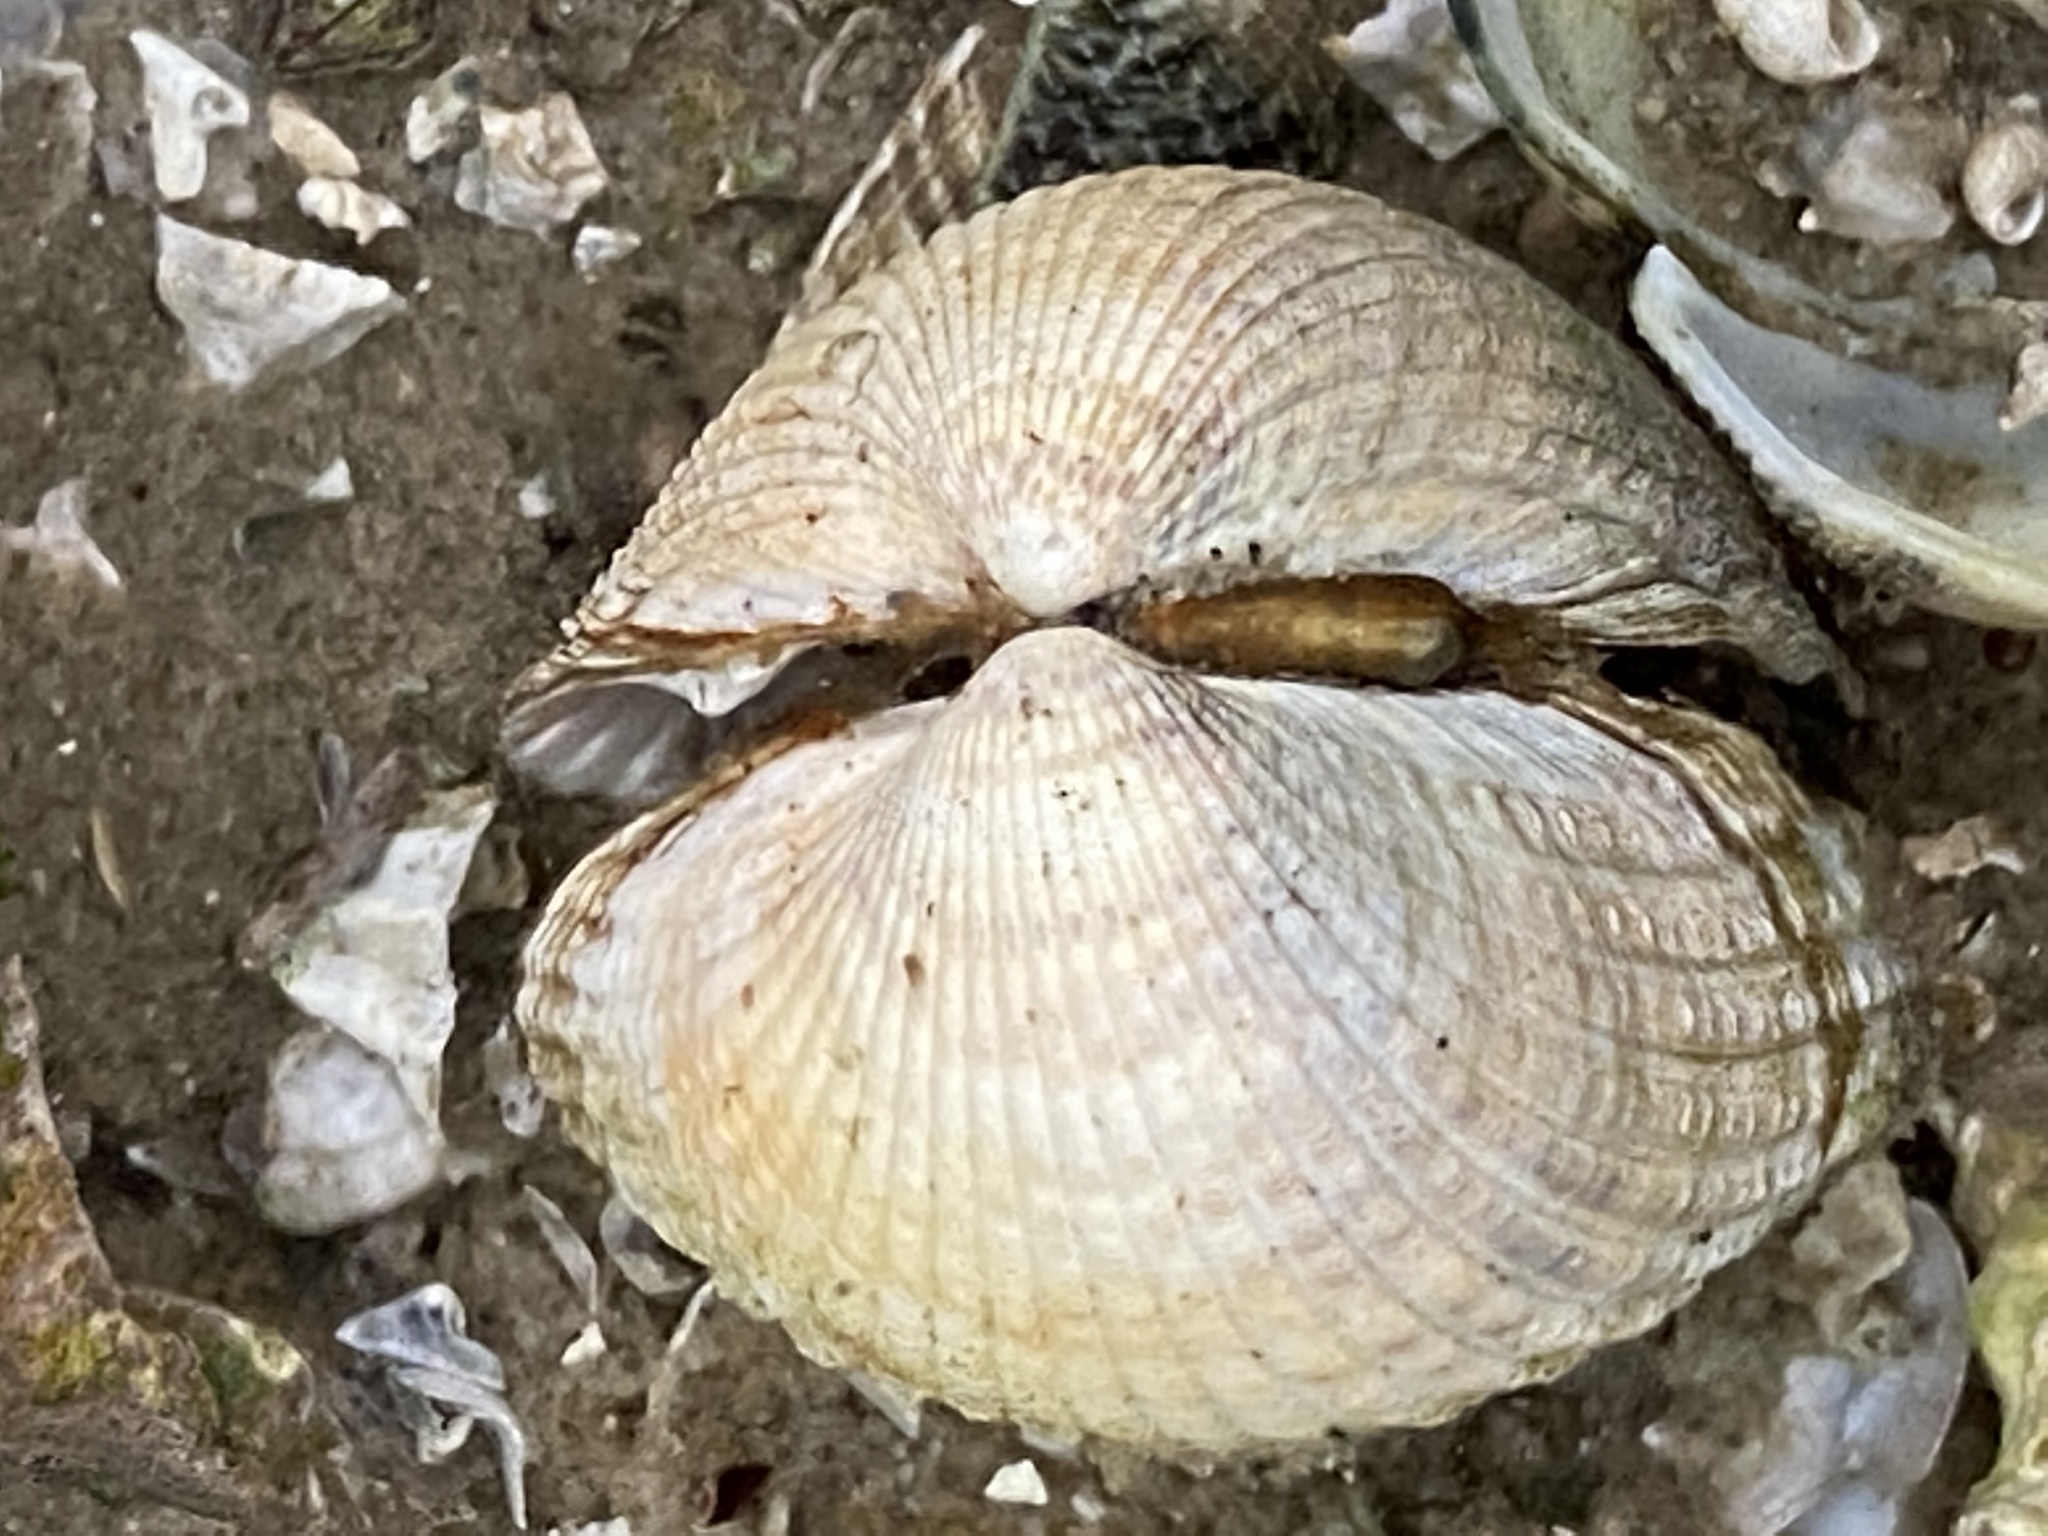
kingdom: Animalia
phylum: Mollusca
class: Bivalvia
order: Cardiida
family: Cardiidae
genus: Cerastoderma
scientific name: Cerastoderma edule
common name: Common cockle
